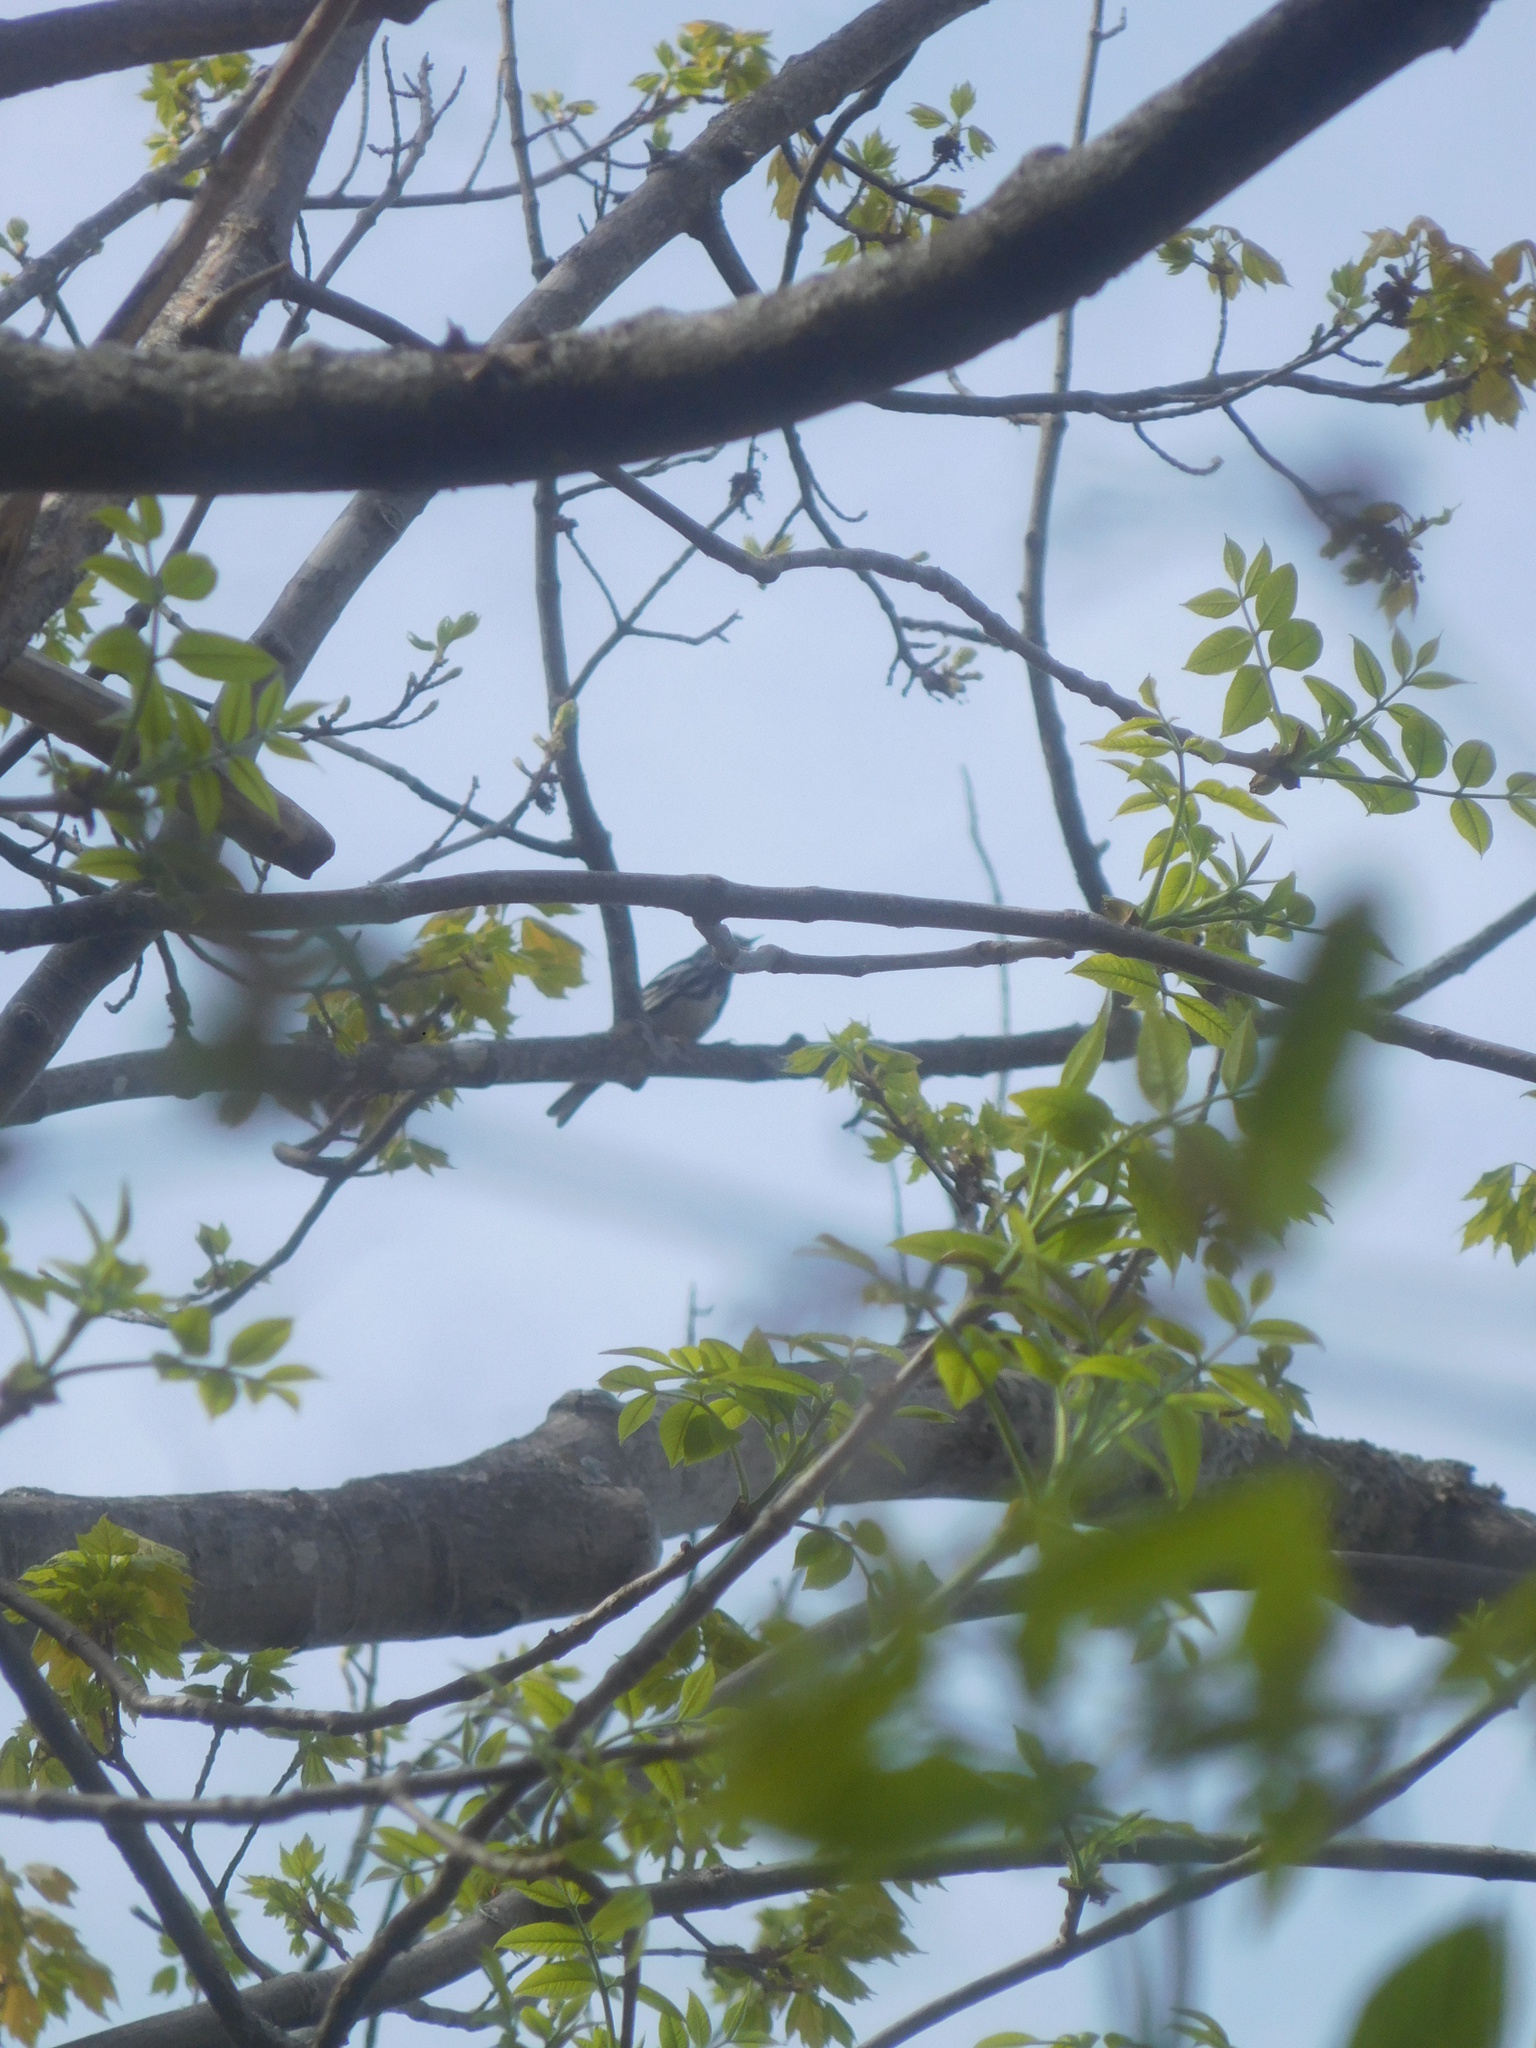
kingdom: Animalia
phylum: Chordata
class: Aves
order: Passeriformes
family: Parulidae
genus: Mniotilta
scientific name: Mniotilta varia
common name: Black-and-white warbler
